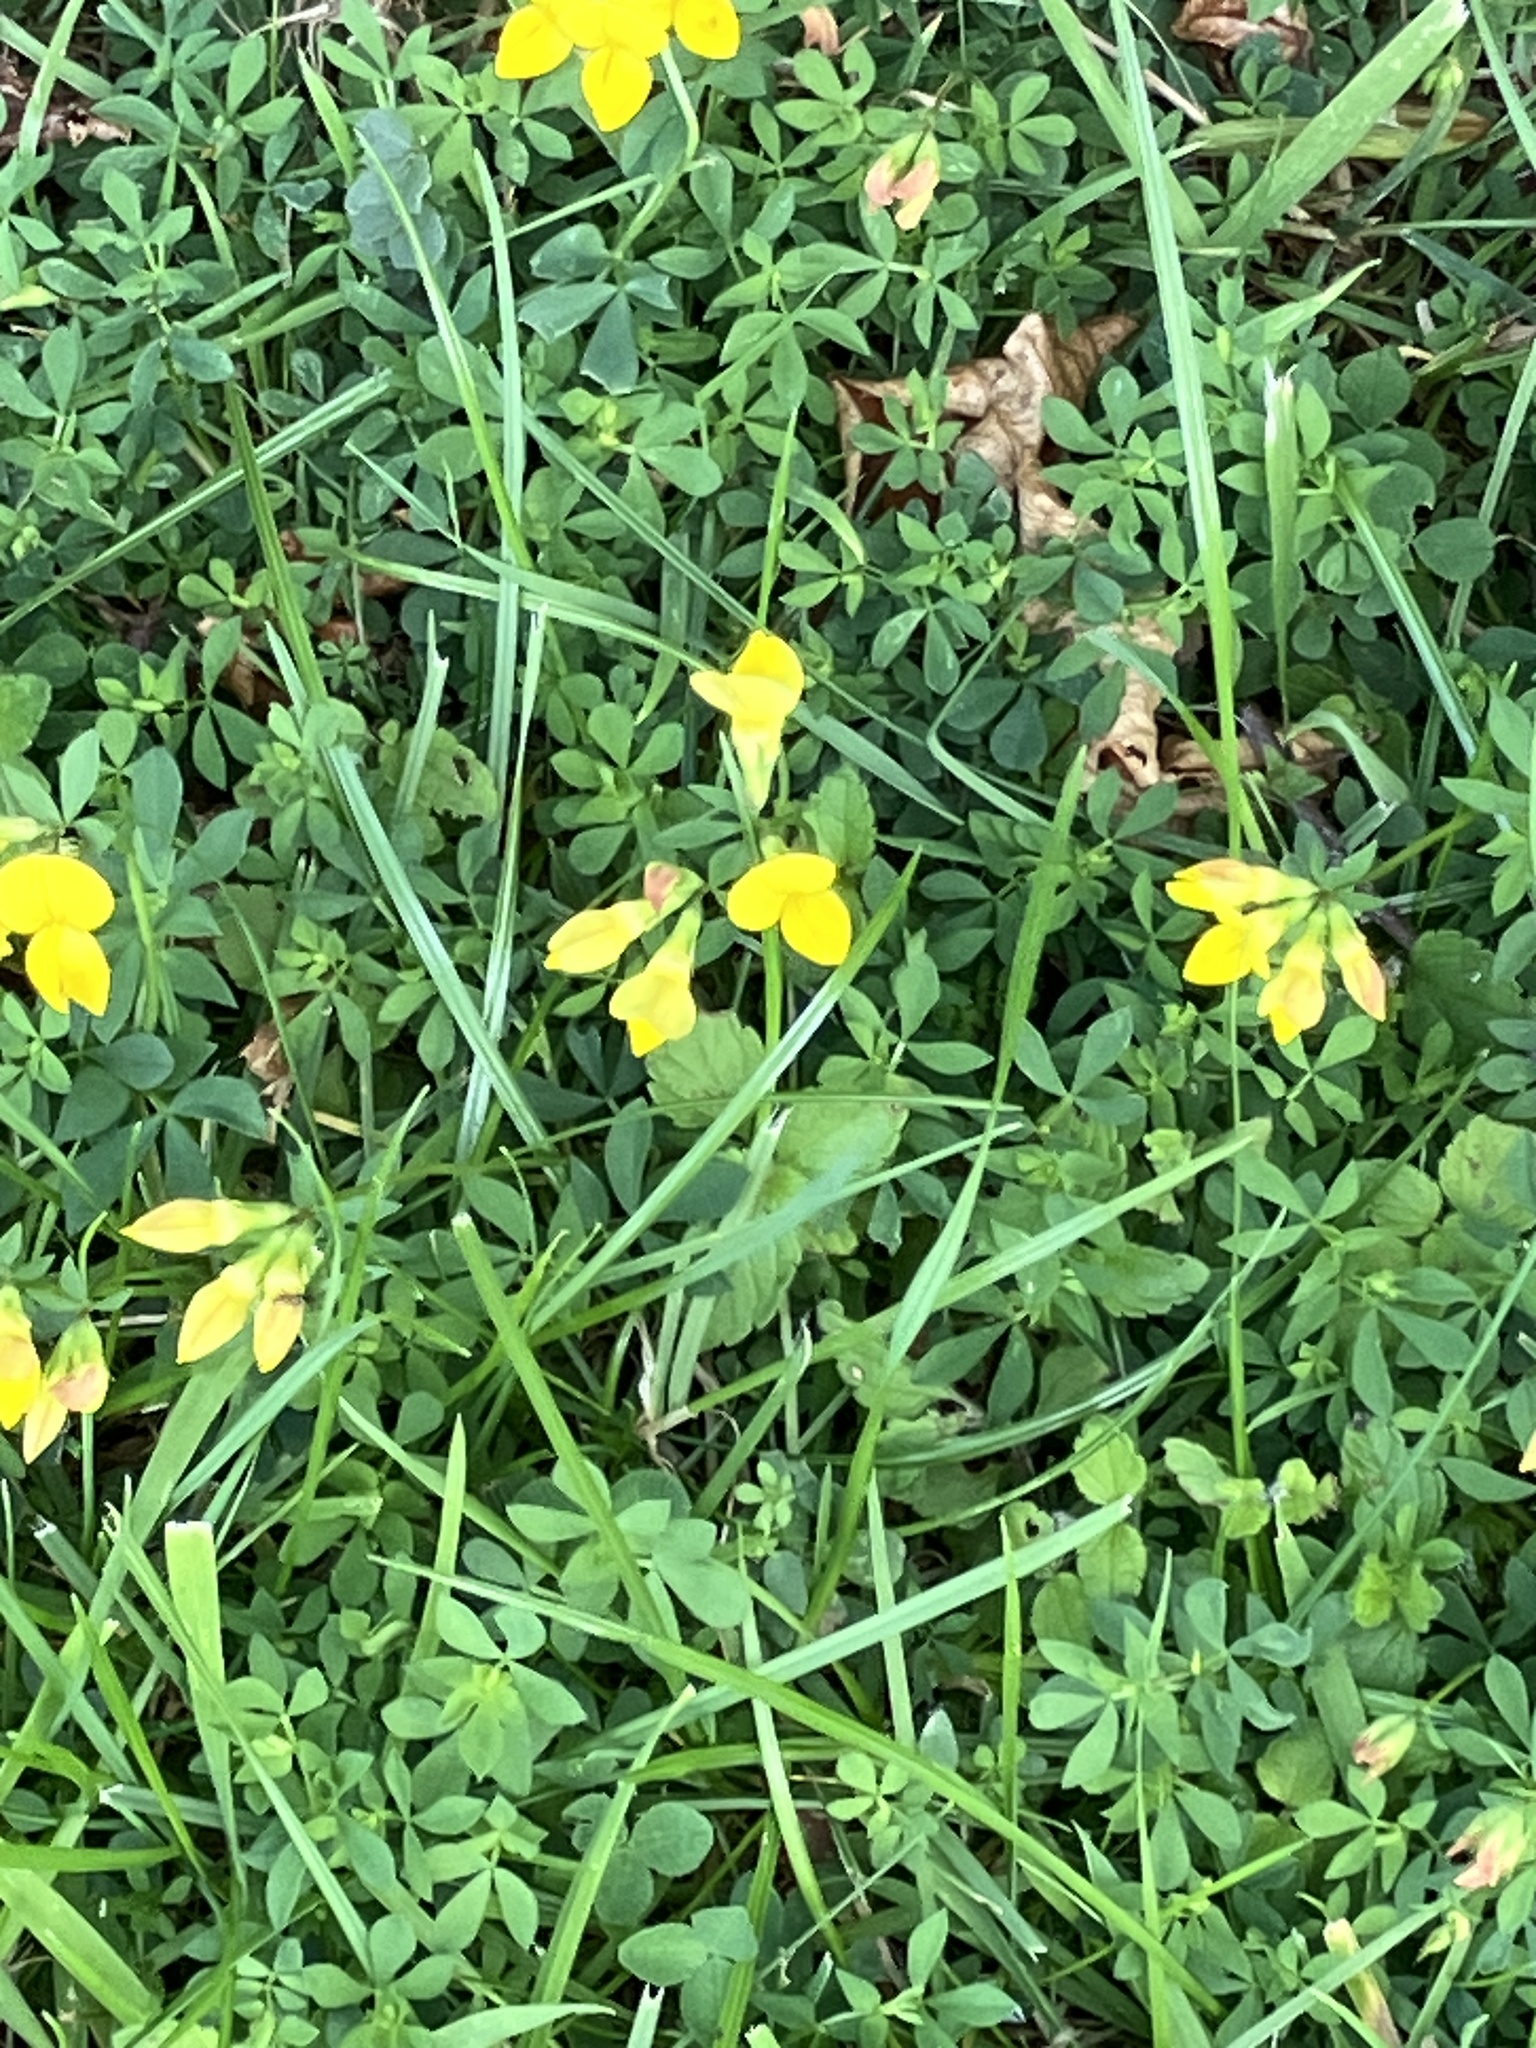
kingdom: Plantae
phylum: Tracheophyta
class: Magnoliopsida
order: Fabales
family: Fabaceae
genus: Lotus
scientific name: Lotus corniculatus
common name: Common bird's-foot-trefoil
